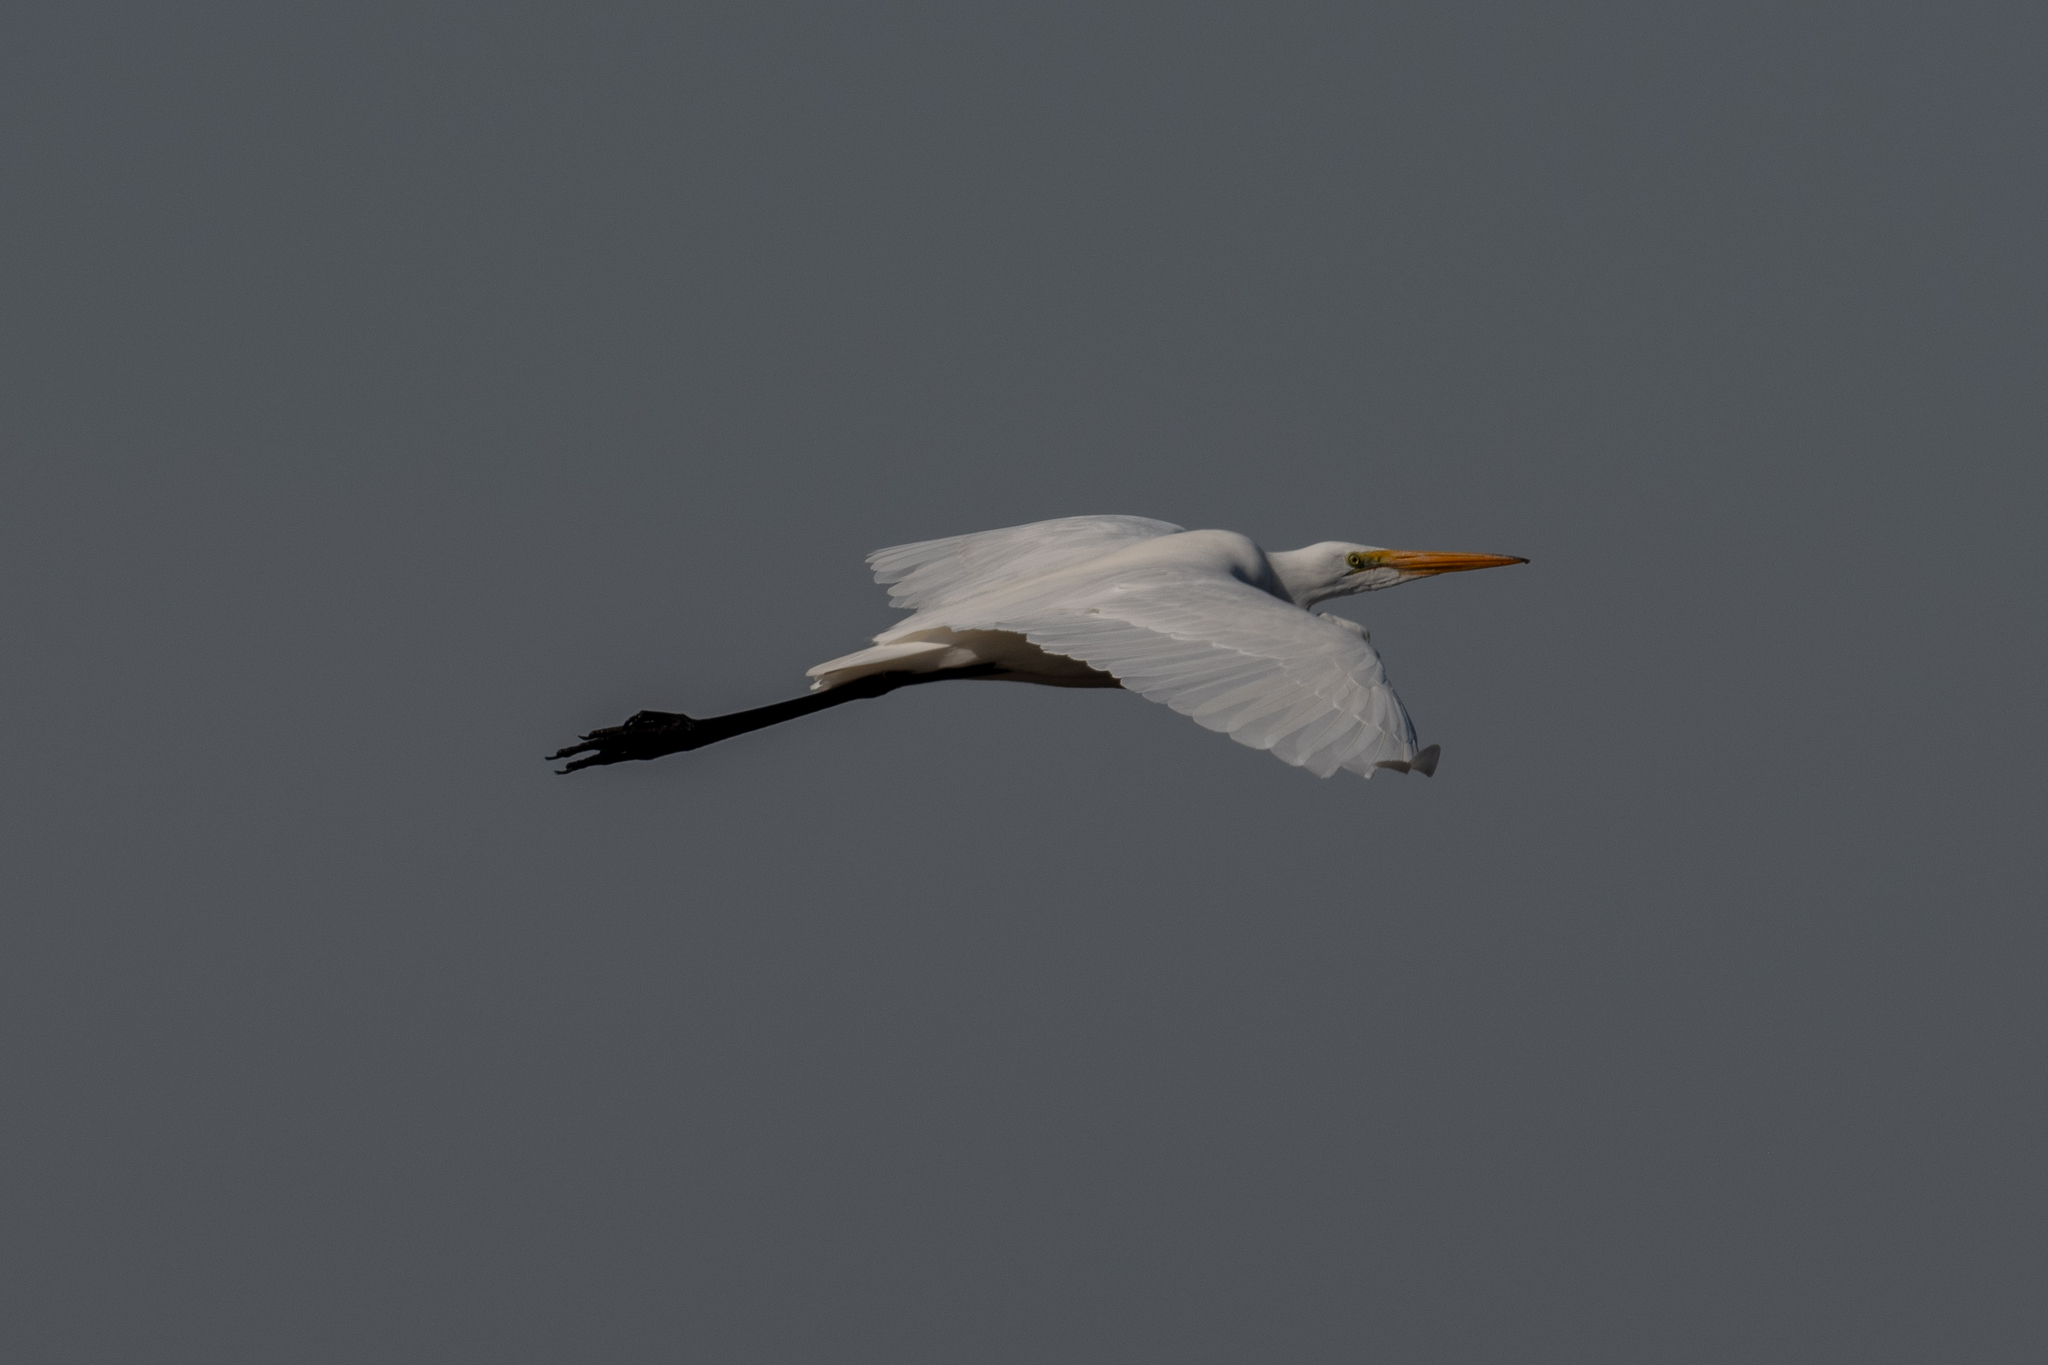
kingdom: Animalia
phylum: Chordata
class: Aves
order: Pelecaniformes
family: Ardeidae
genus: Ardea
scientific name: Ardea alba
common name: Great egret
